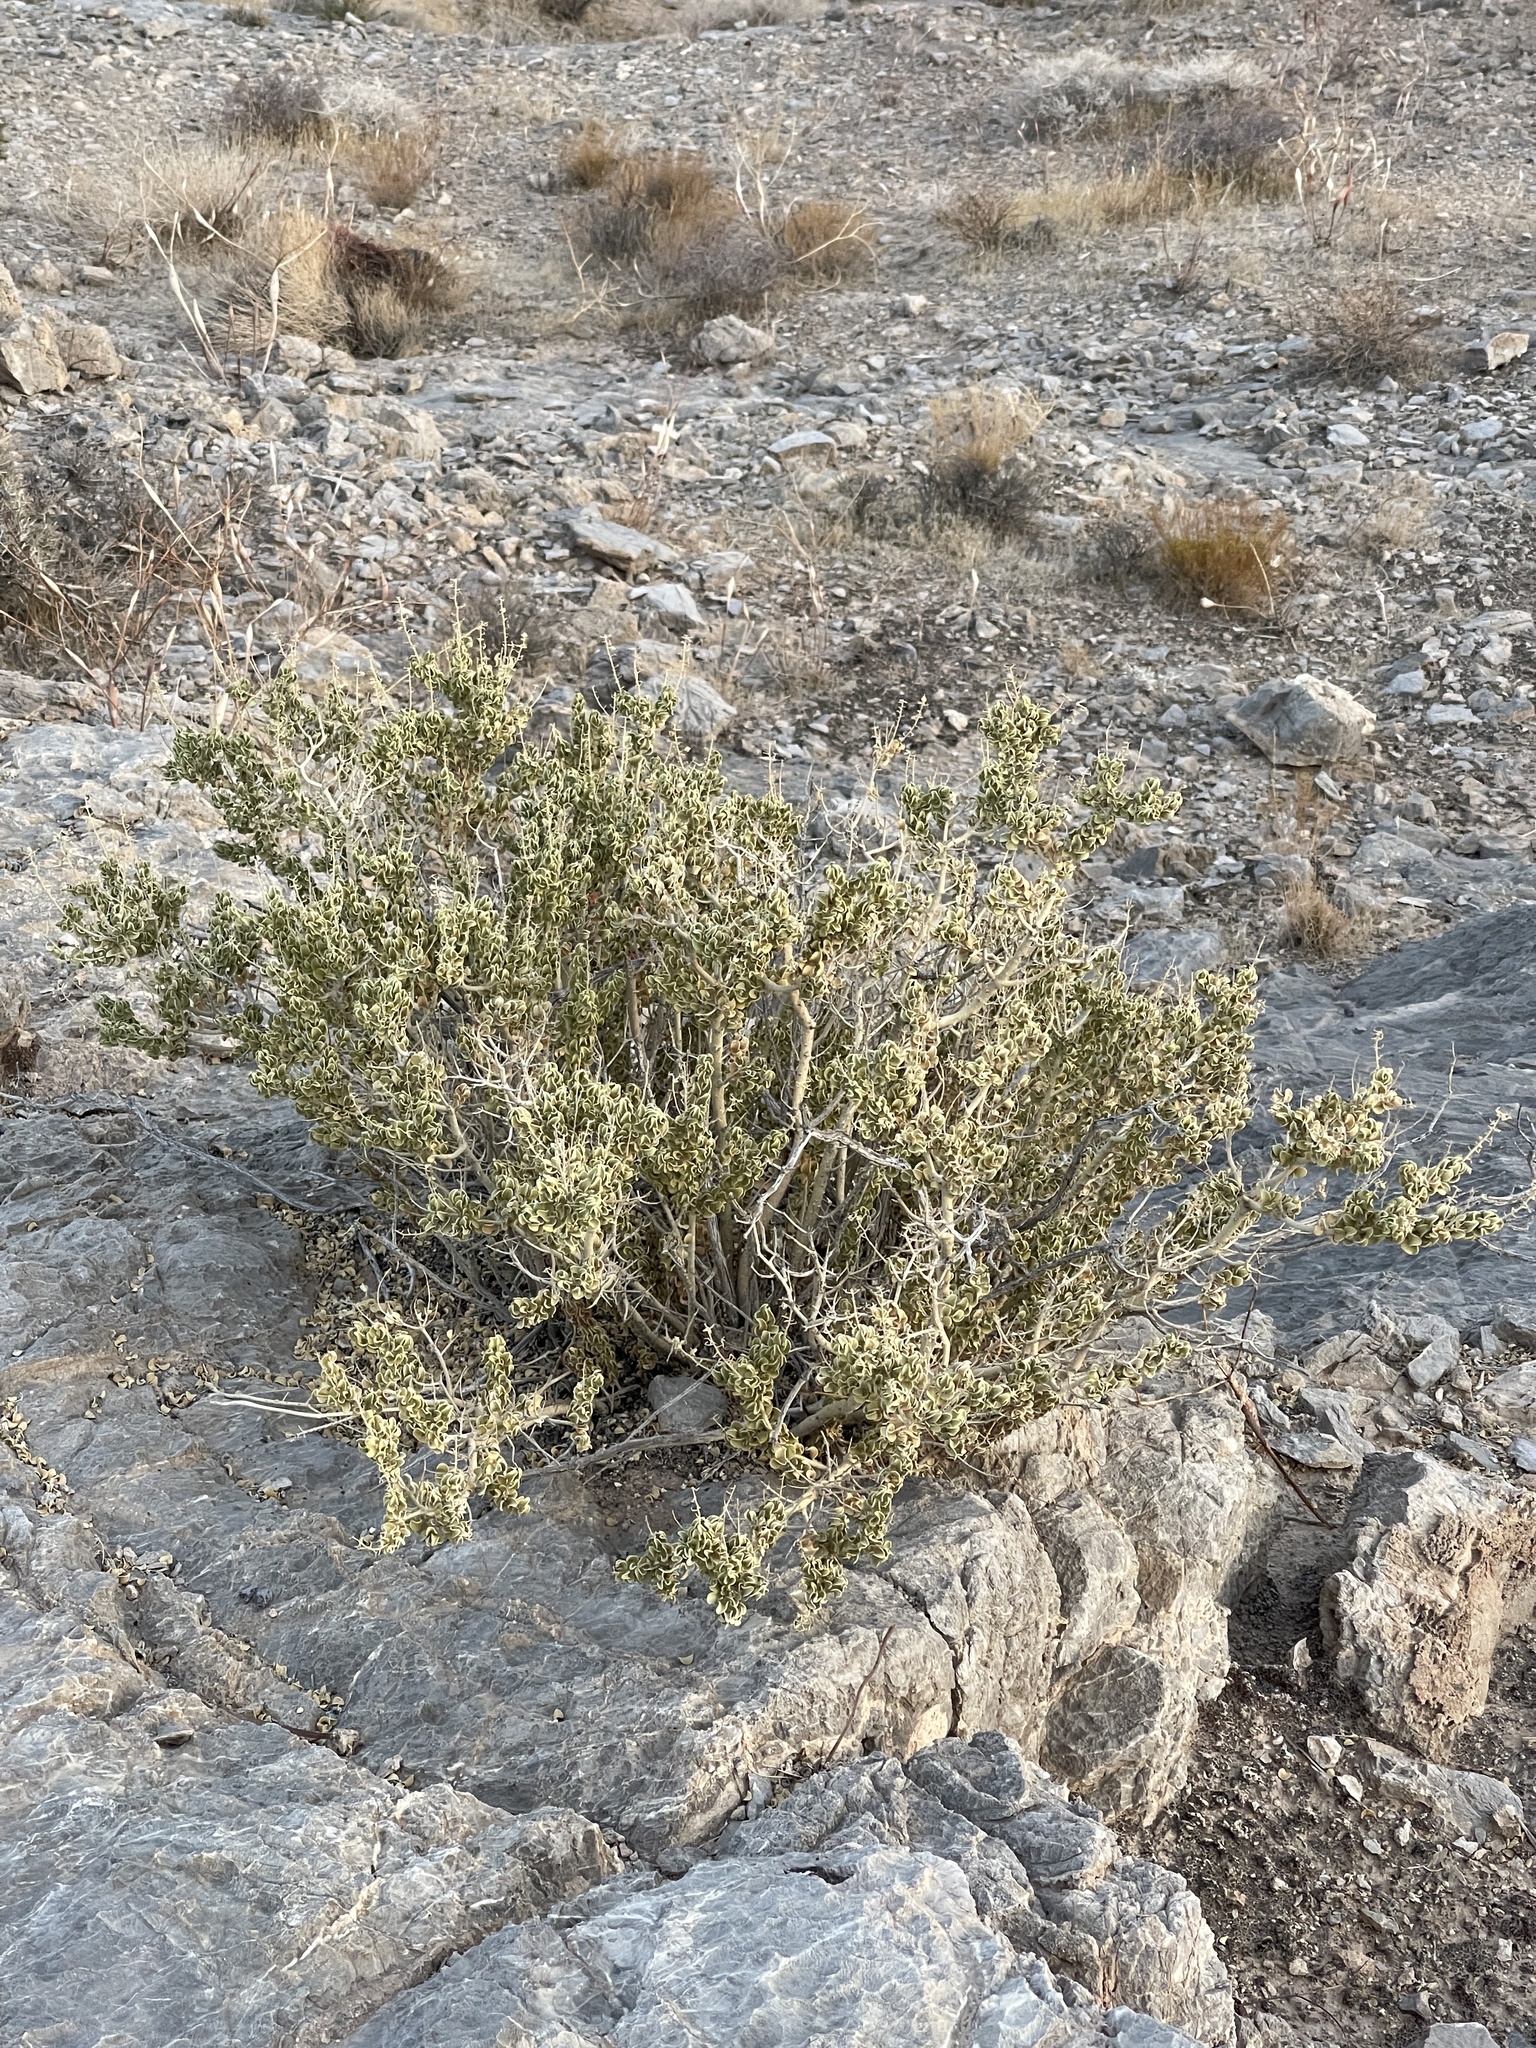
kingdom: Plantae
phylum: Tracheophyta
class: Magnoliopsida
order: Celastrales
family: Celastraceae
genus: Mortonia
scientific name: Mortonia utahensis
